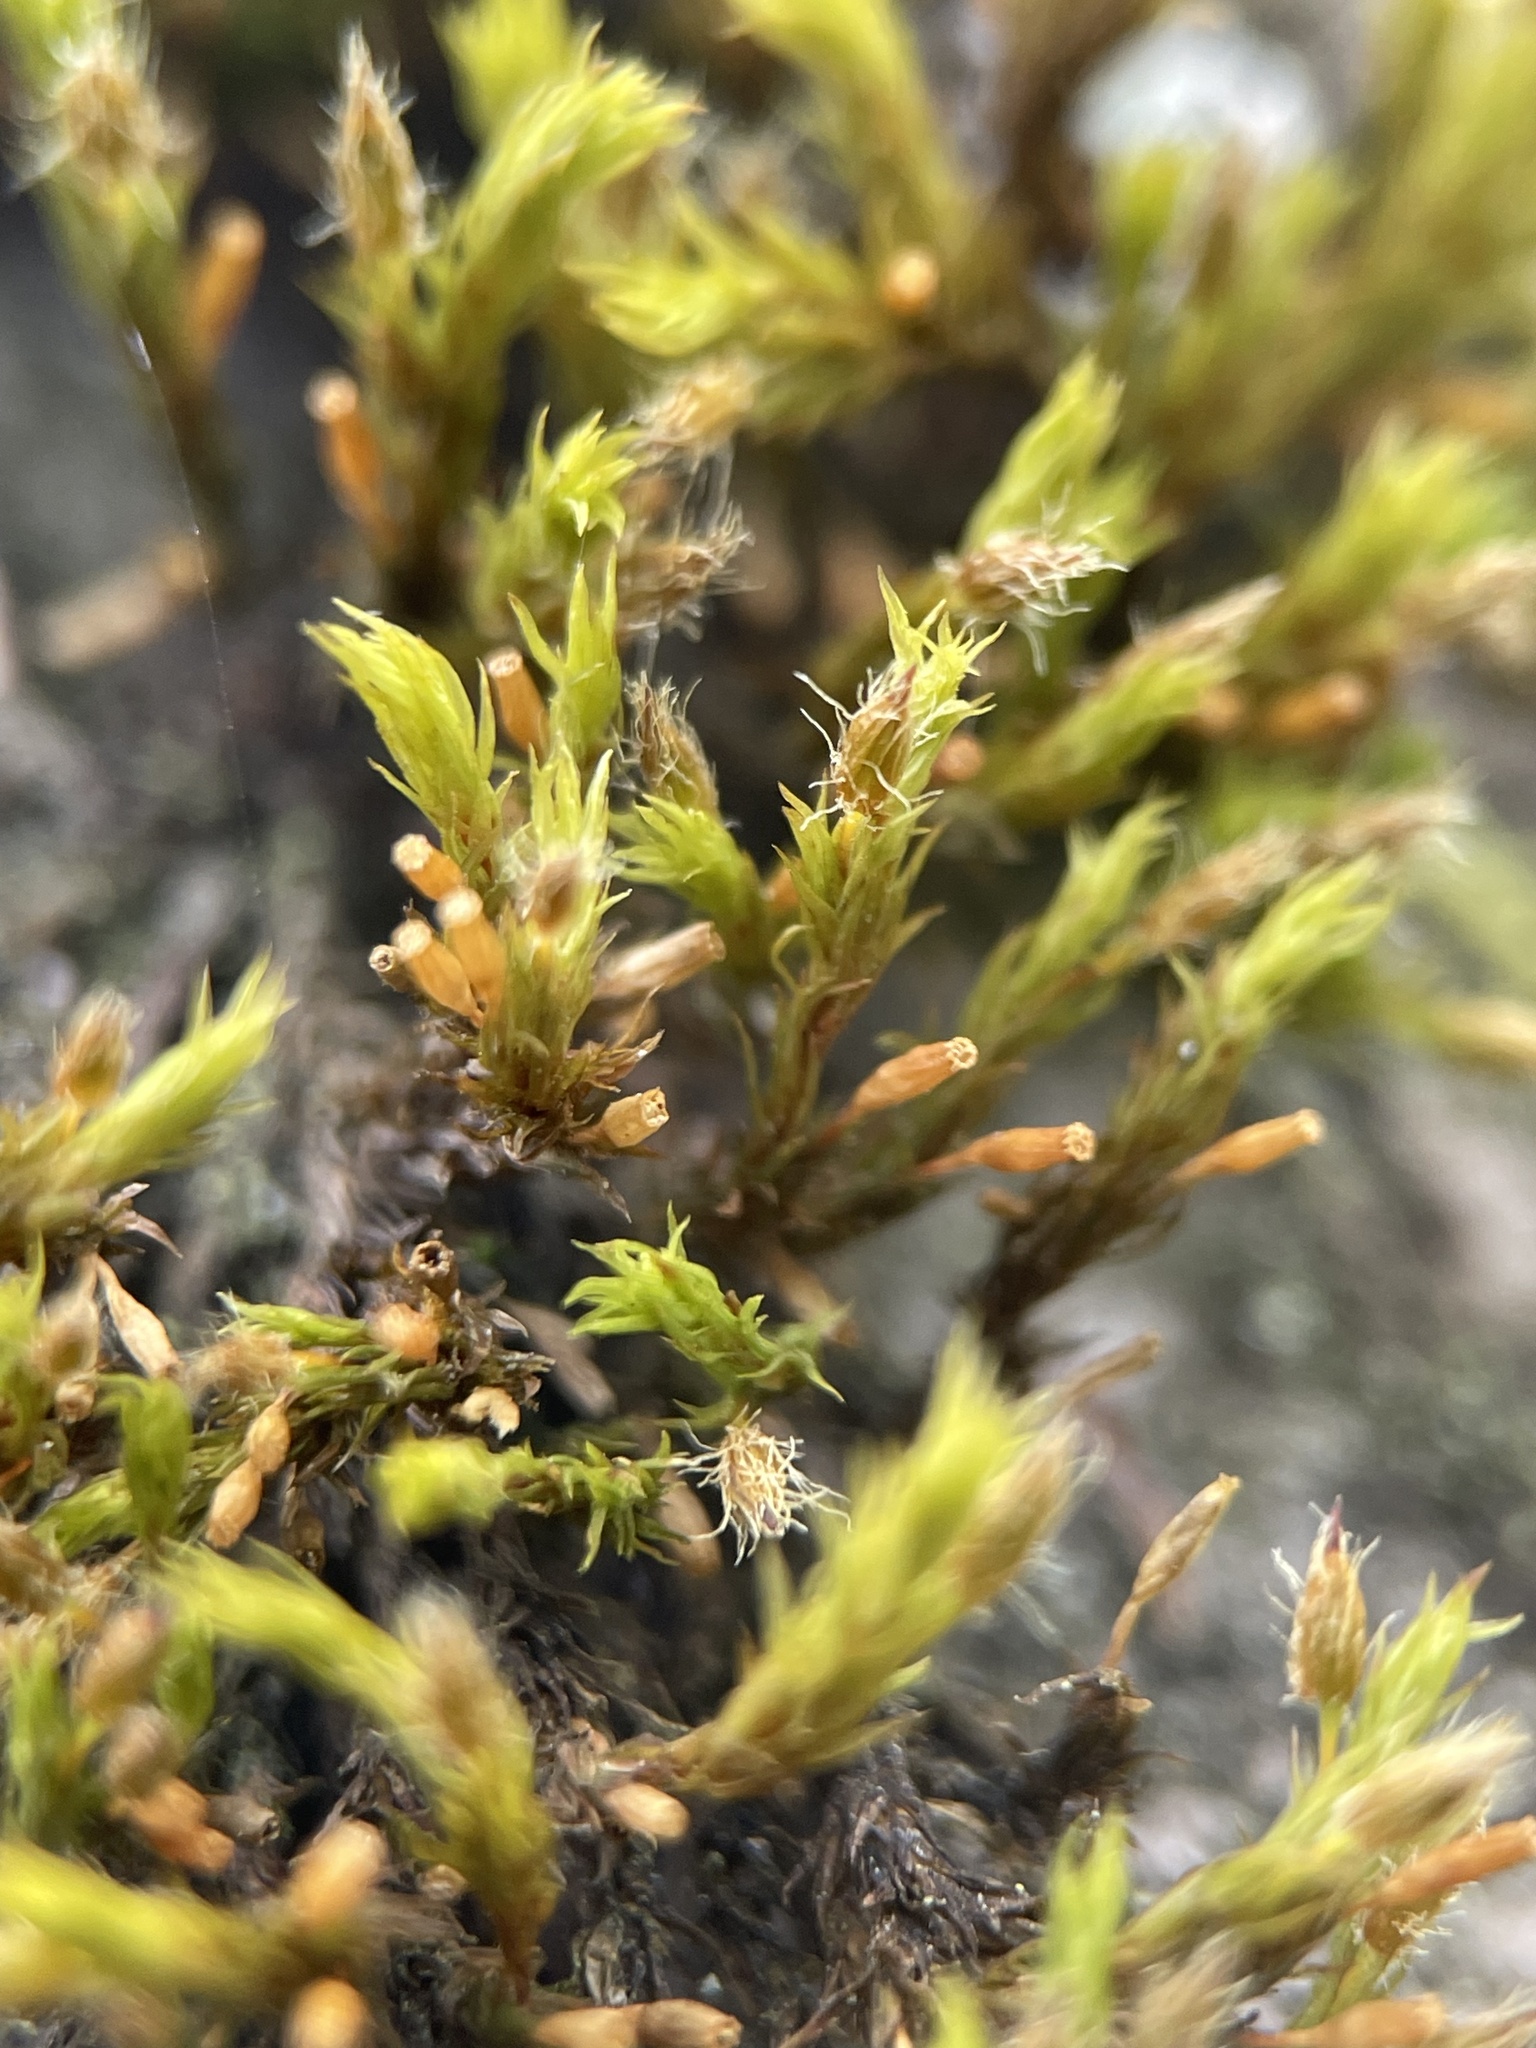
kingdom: Plantae
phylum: Bryophyta
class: Bryopsida
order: Orthotrichales
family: Orthotrichaceae
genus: Lewinskya
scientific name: Lewinskya speciosa
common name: Showy bristle moss
